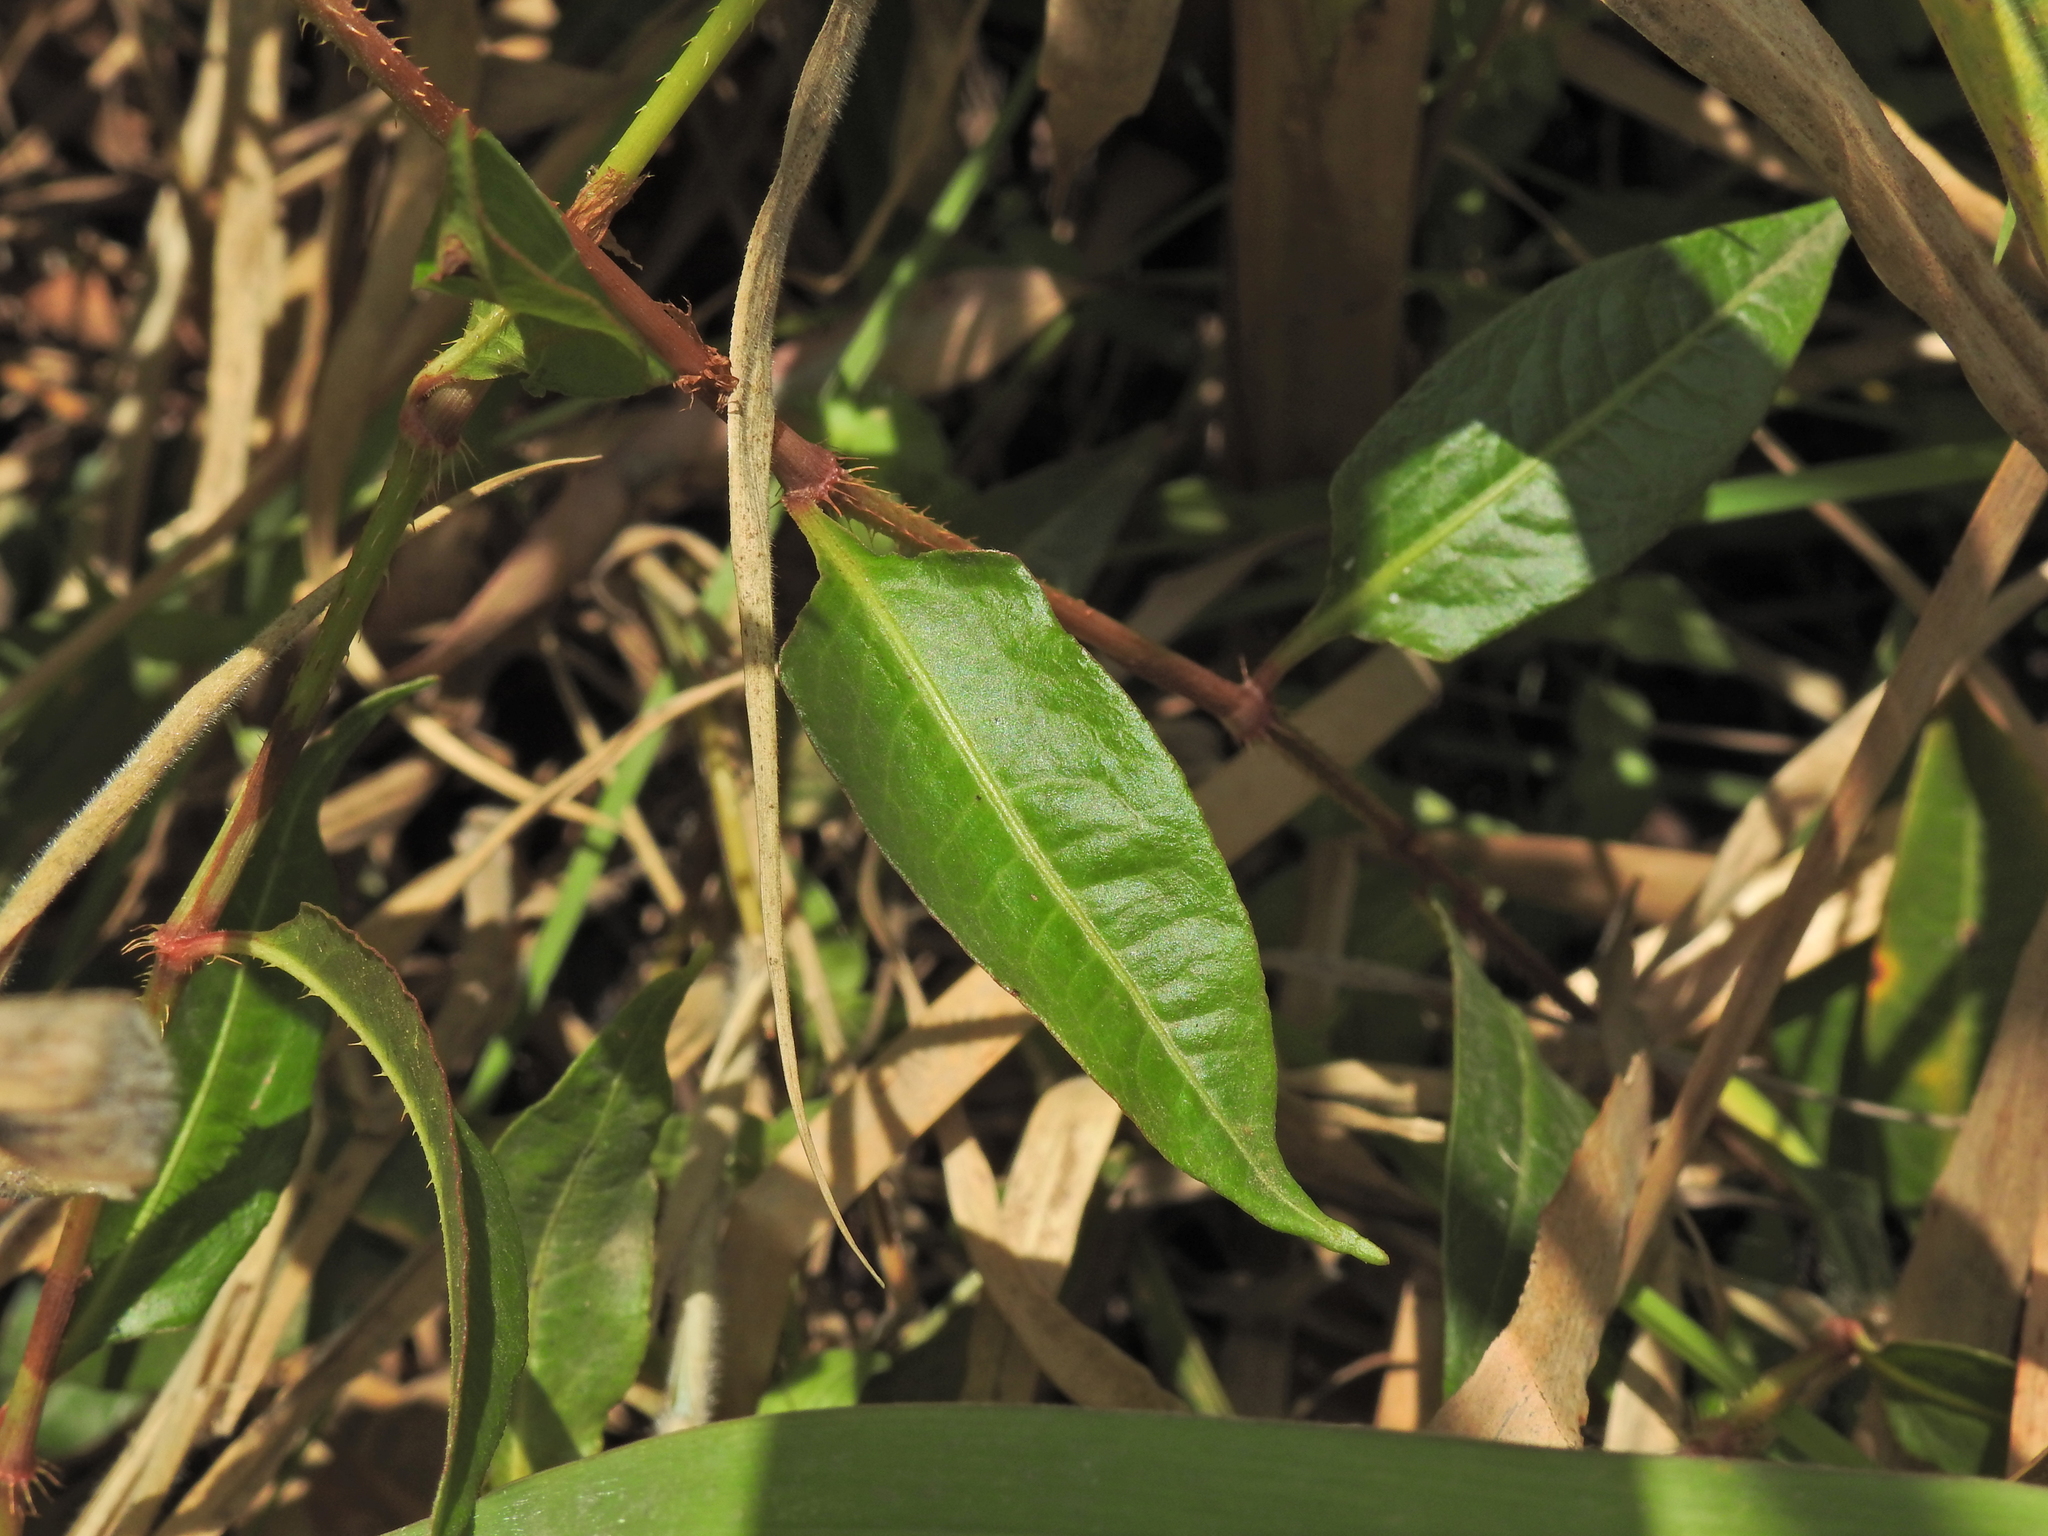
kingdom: Plantae
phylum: Tracheophyta
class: Magnoliopsida
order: Caryophyllales
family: Polygonaceae
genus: Persicaria
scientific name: Persicaria strigosa
